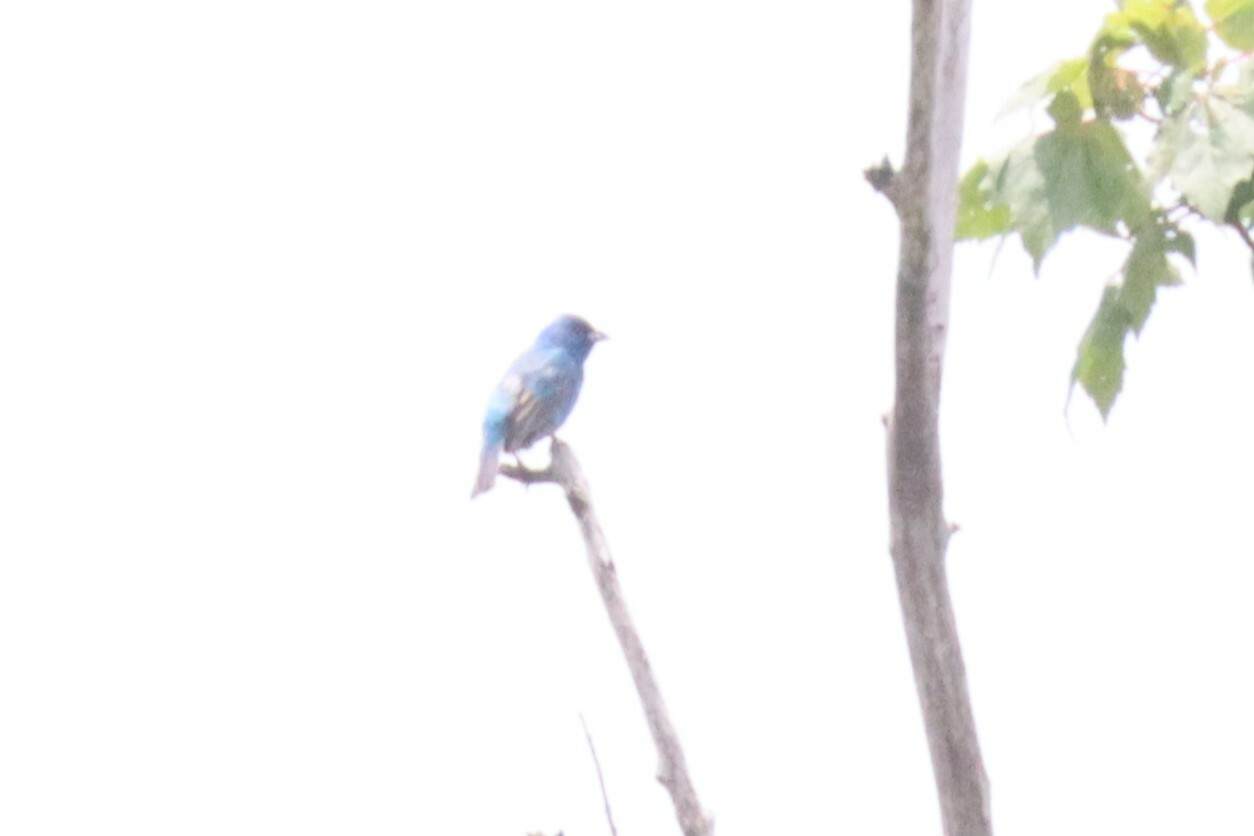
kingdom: Animalia
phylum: Chordata
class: Aves
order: Passeriformes
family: Cardinalidae
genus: Passerina
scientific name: Passerina cyanea
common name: Indigo bunting
